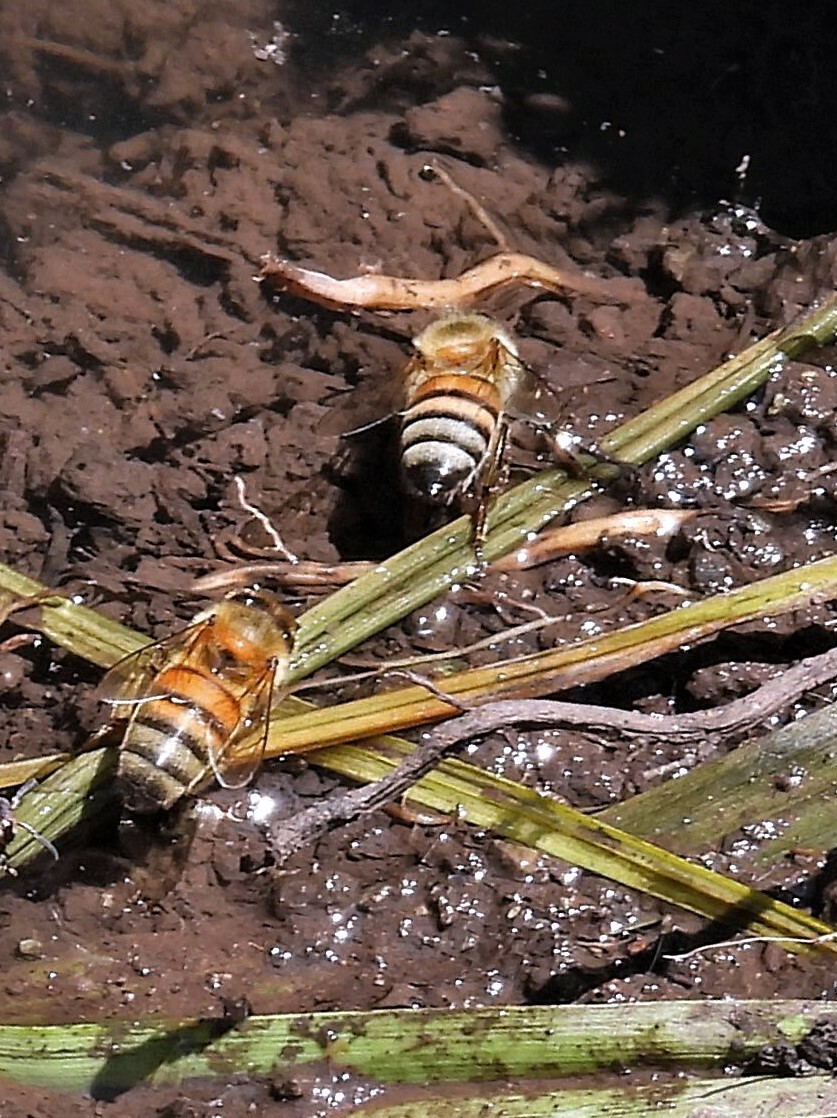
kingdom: Animalia
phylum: Arthropoda
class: Insecta
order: Hymenoptera
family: Apidae
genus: Apis
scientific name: Apis mellifera
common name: Honey bee
